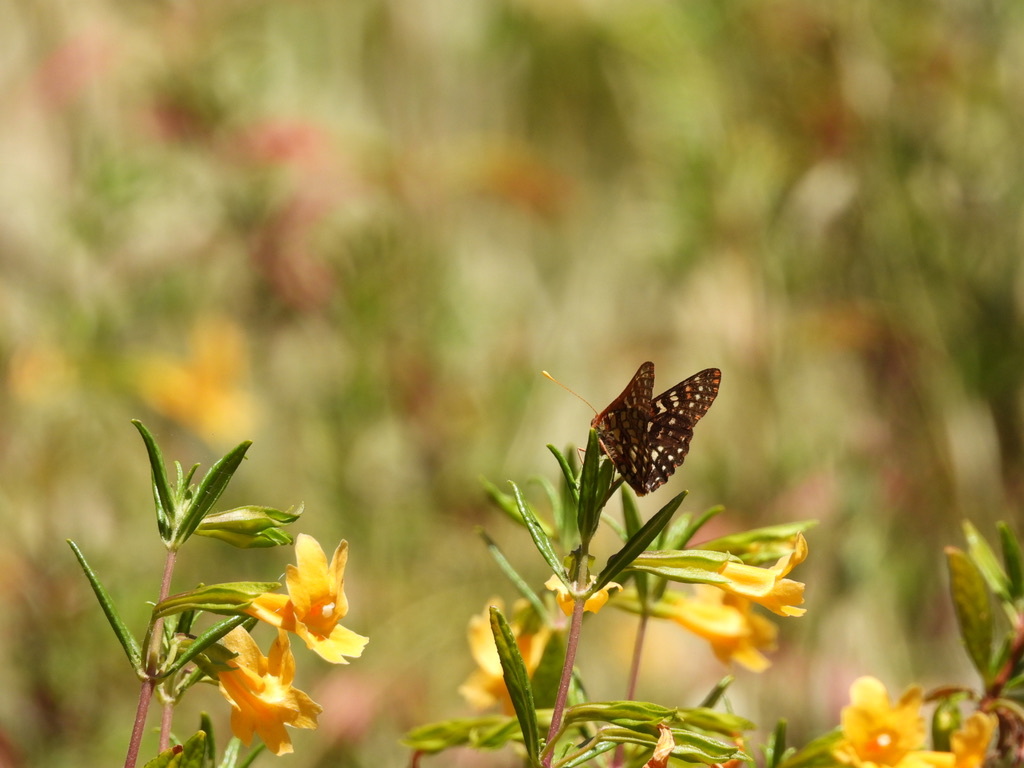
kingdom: Animalia
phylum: Arthropoda
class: Insecta
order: Lepidoptera
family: Nymphalidae
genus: Occidryas
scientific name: Occidryas chalcedona
